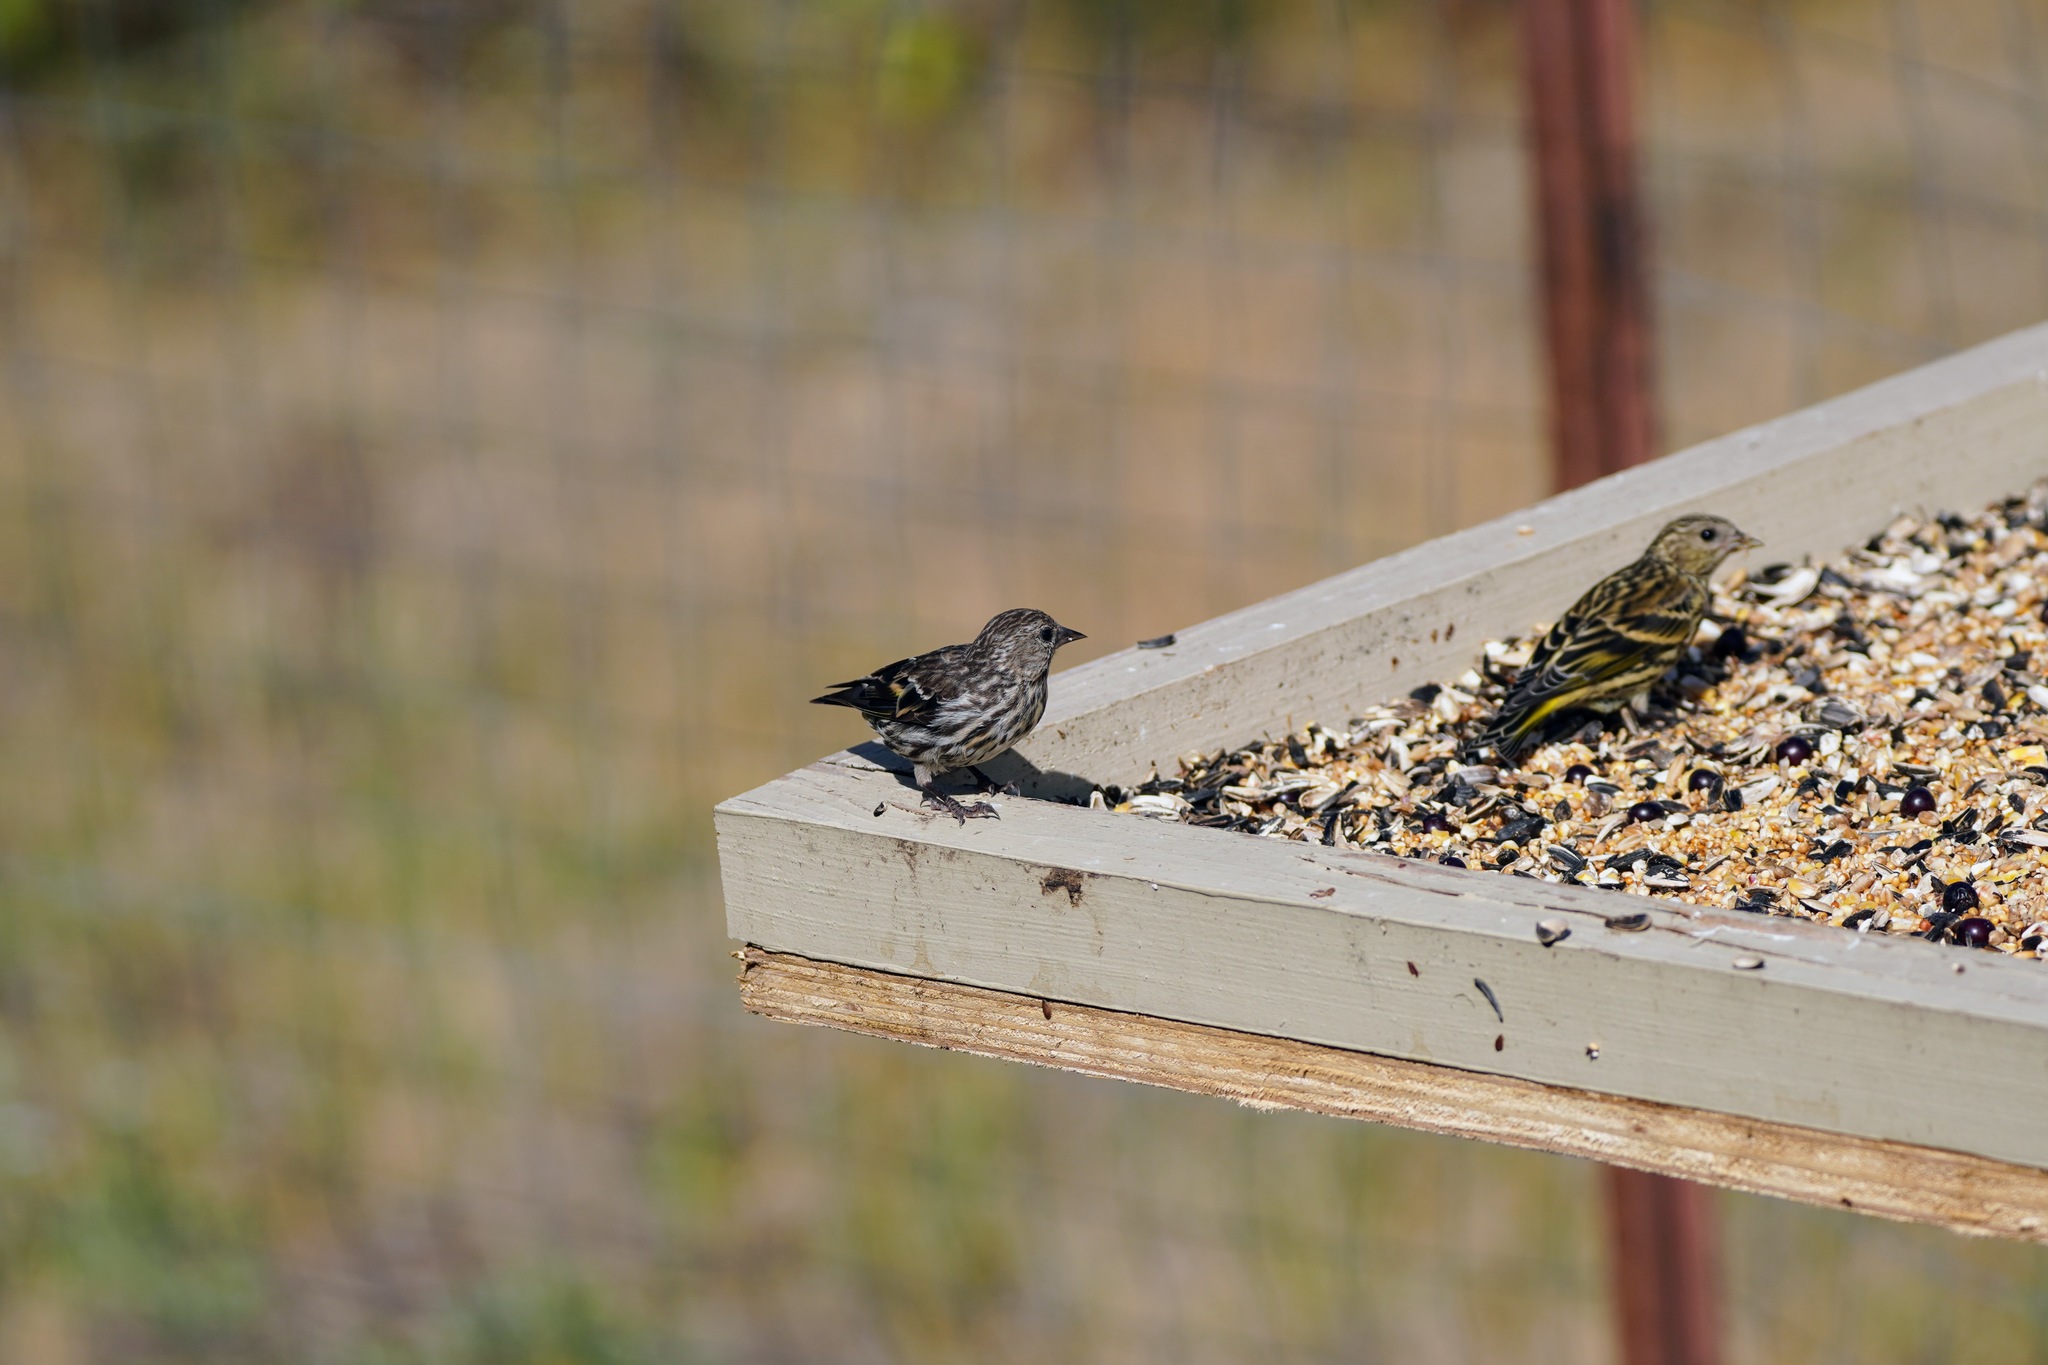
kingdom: Animalia
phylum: Chordata
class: Aves
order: Passeriformes
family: Fringillidae
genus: Spinus
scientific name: Spinus pinus
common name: Pine siskin
